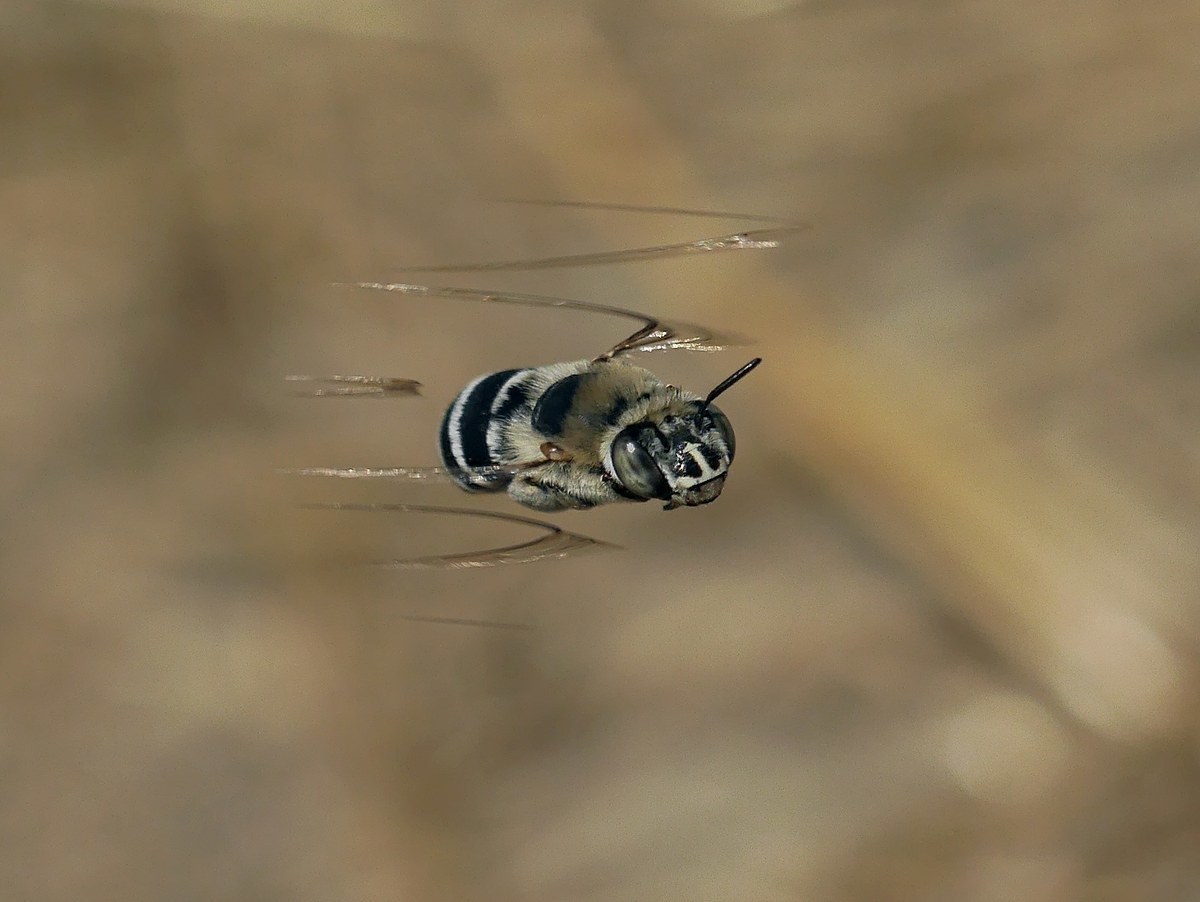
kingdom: Animalia
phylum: Arthropoda
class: Insecta
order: Hymenoptera
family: Apidae
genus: Amegilla
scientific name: Amegilla quadrifasciata
